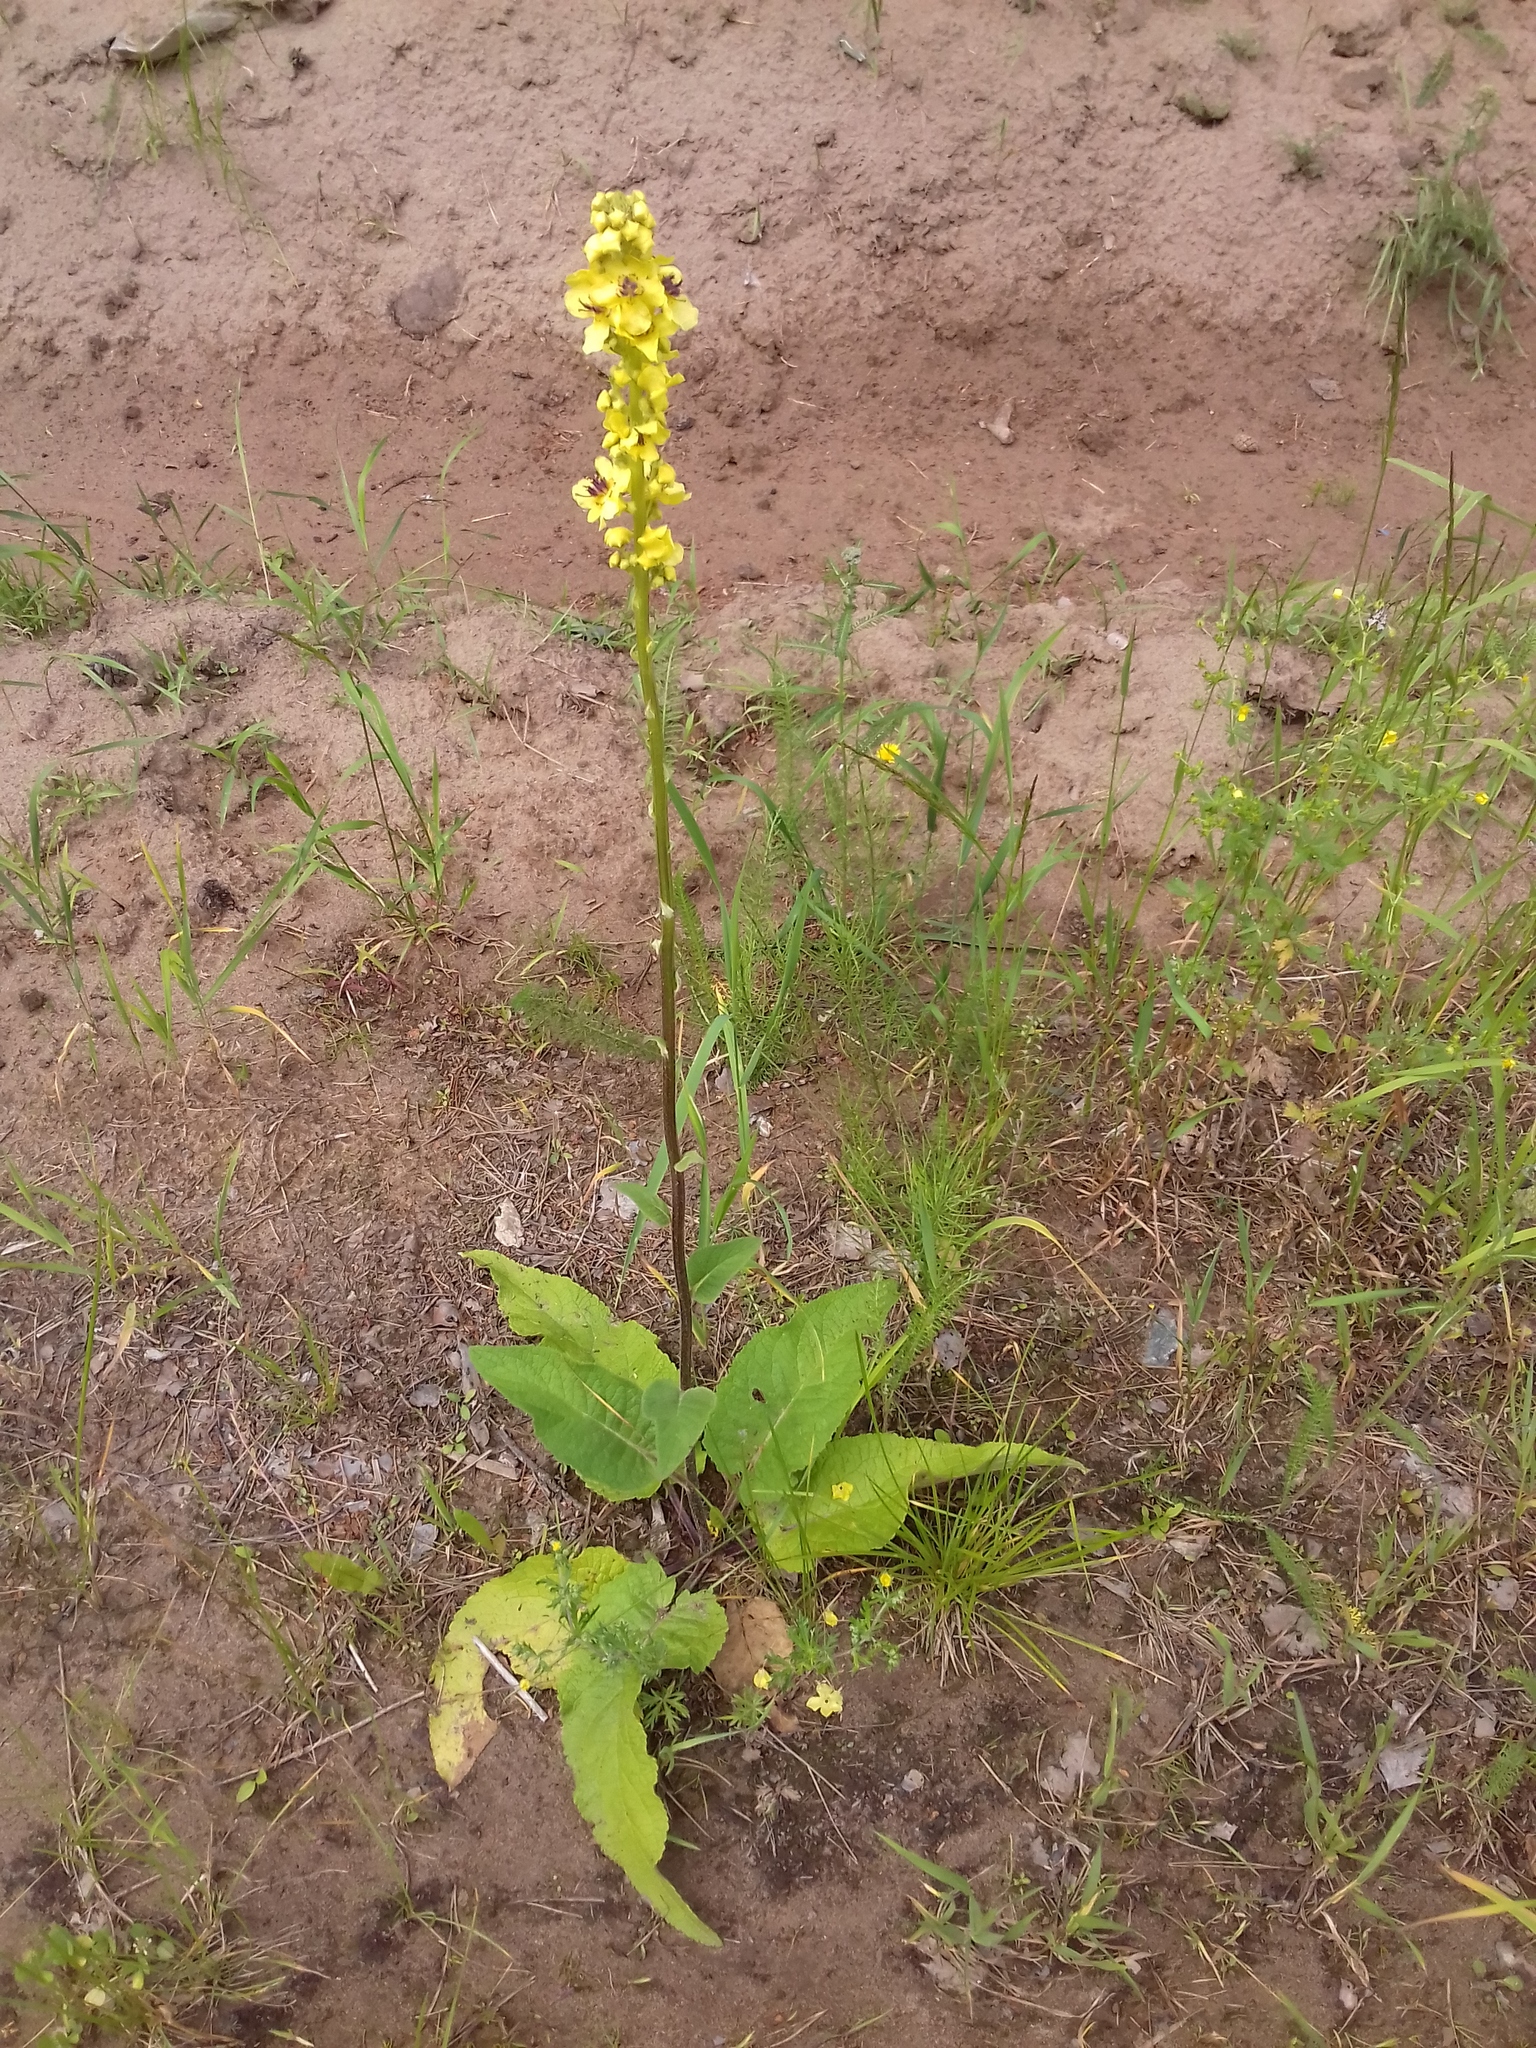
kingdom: Plantae
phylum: Tracheophyta
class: Magnoliopsida
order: Lamiales
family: Scrophulariaceae
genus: Verbascum
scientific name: Verbascum nigrum
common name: Dark mullein
